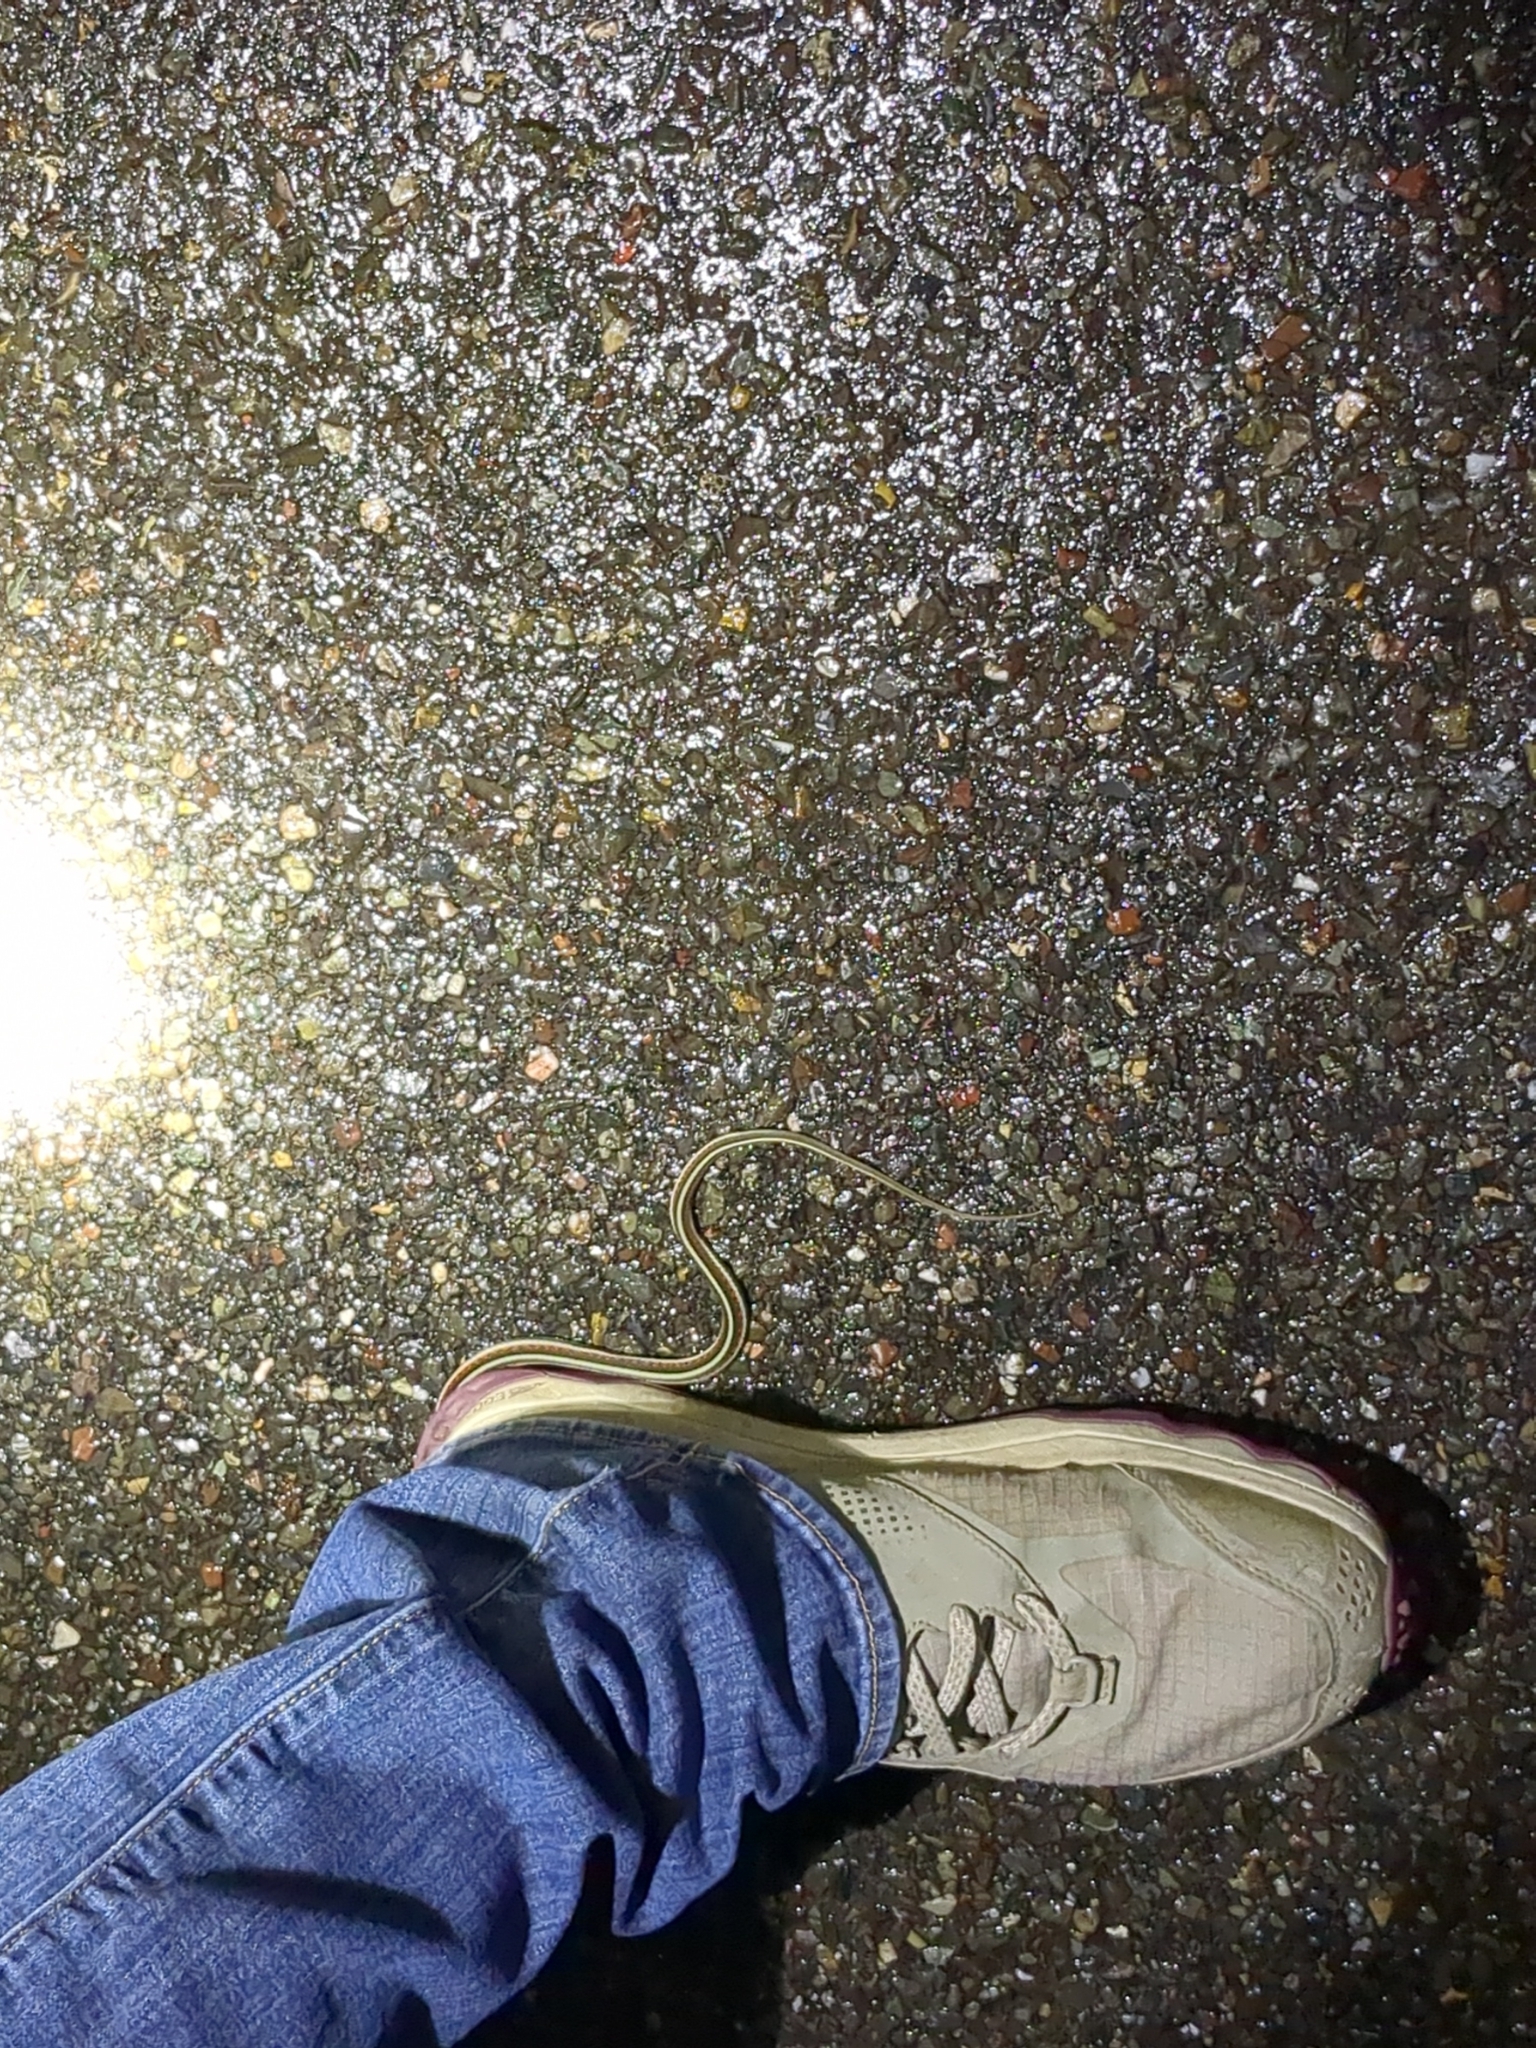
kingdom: Animalia
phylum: Chordata
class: Squamata
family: Colubridae
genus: Thamnophis
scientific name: Thamnophis sirtalis
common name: Common garter snake
